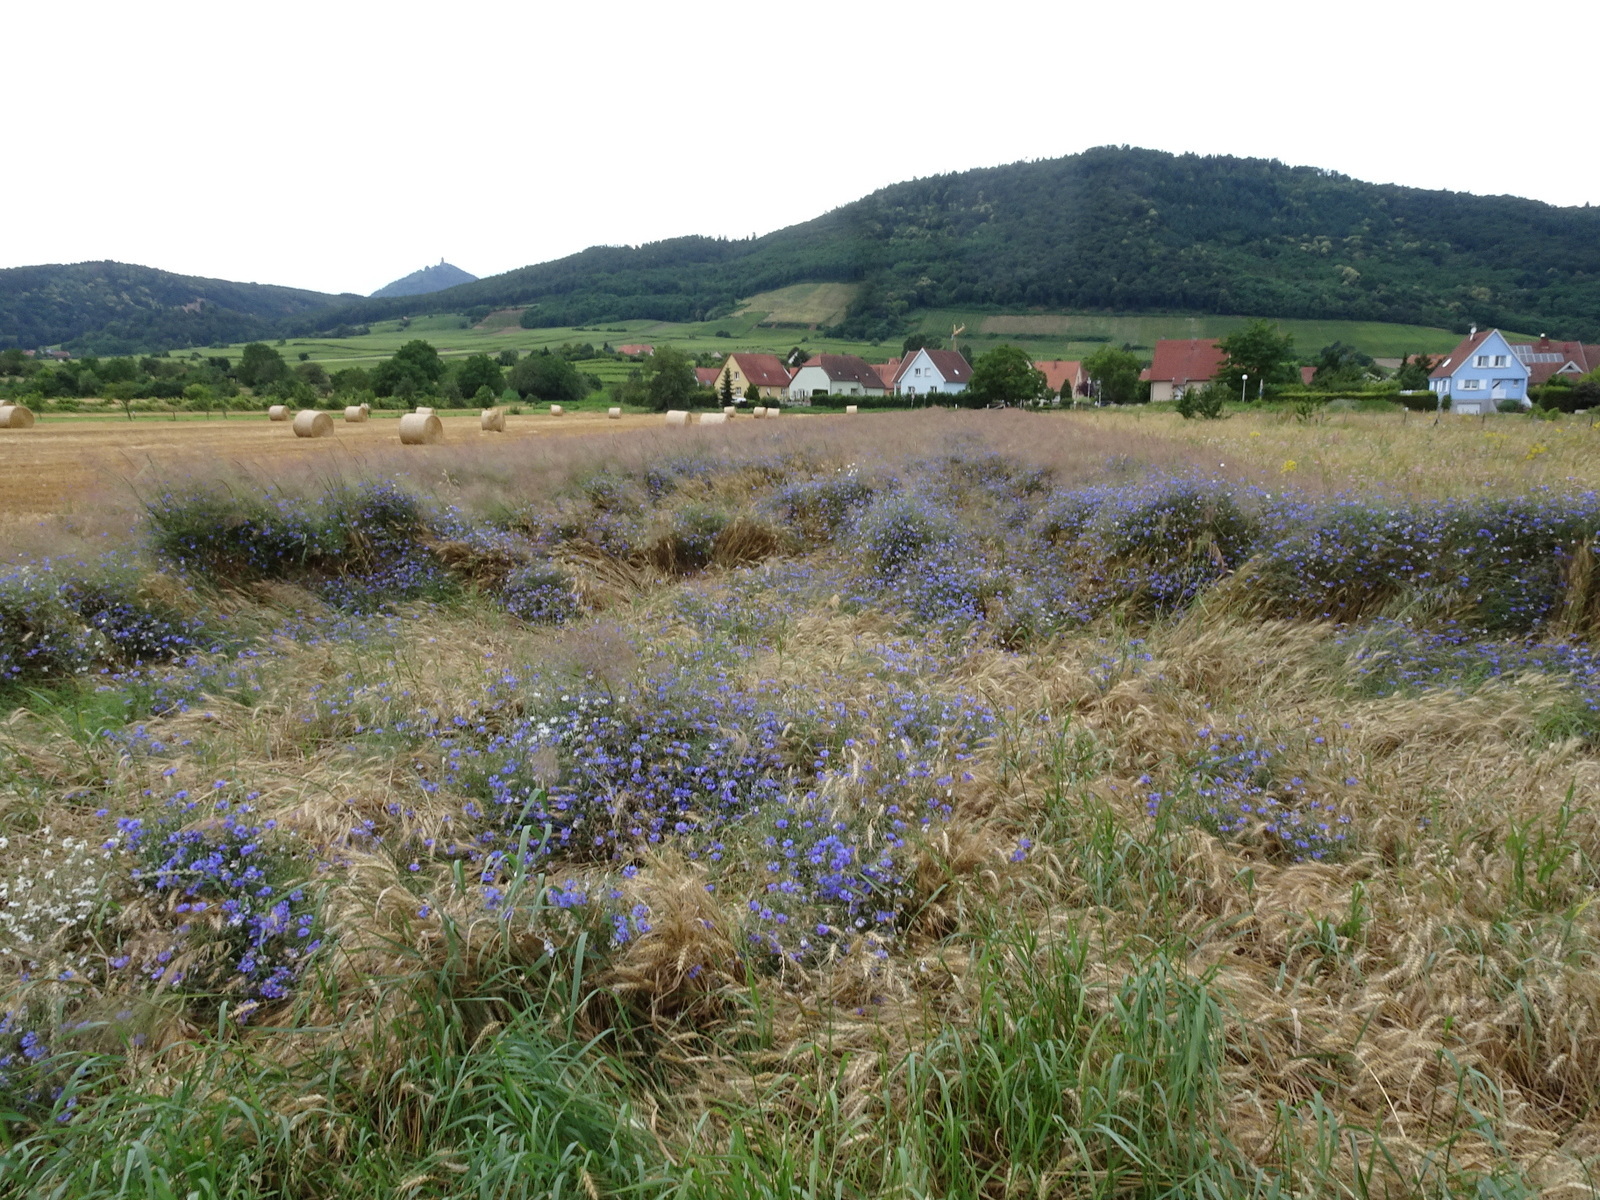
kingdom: Plantae
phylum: Tracheophyta
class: Magnoliopsida
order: Asterales
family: Asteraceae
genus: Centaurea
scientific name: Centaurea cyanus
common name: Cornflower
